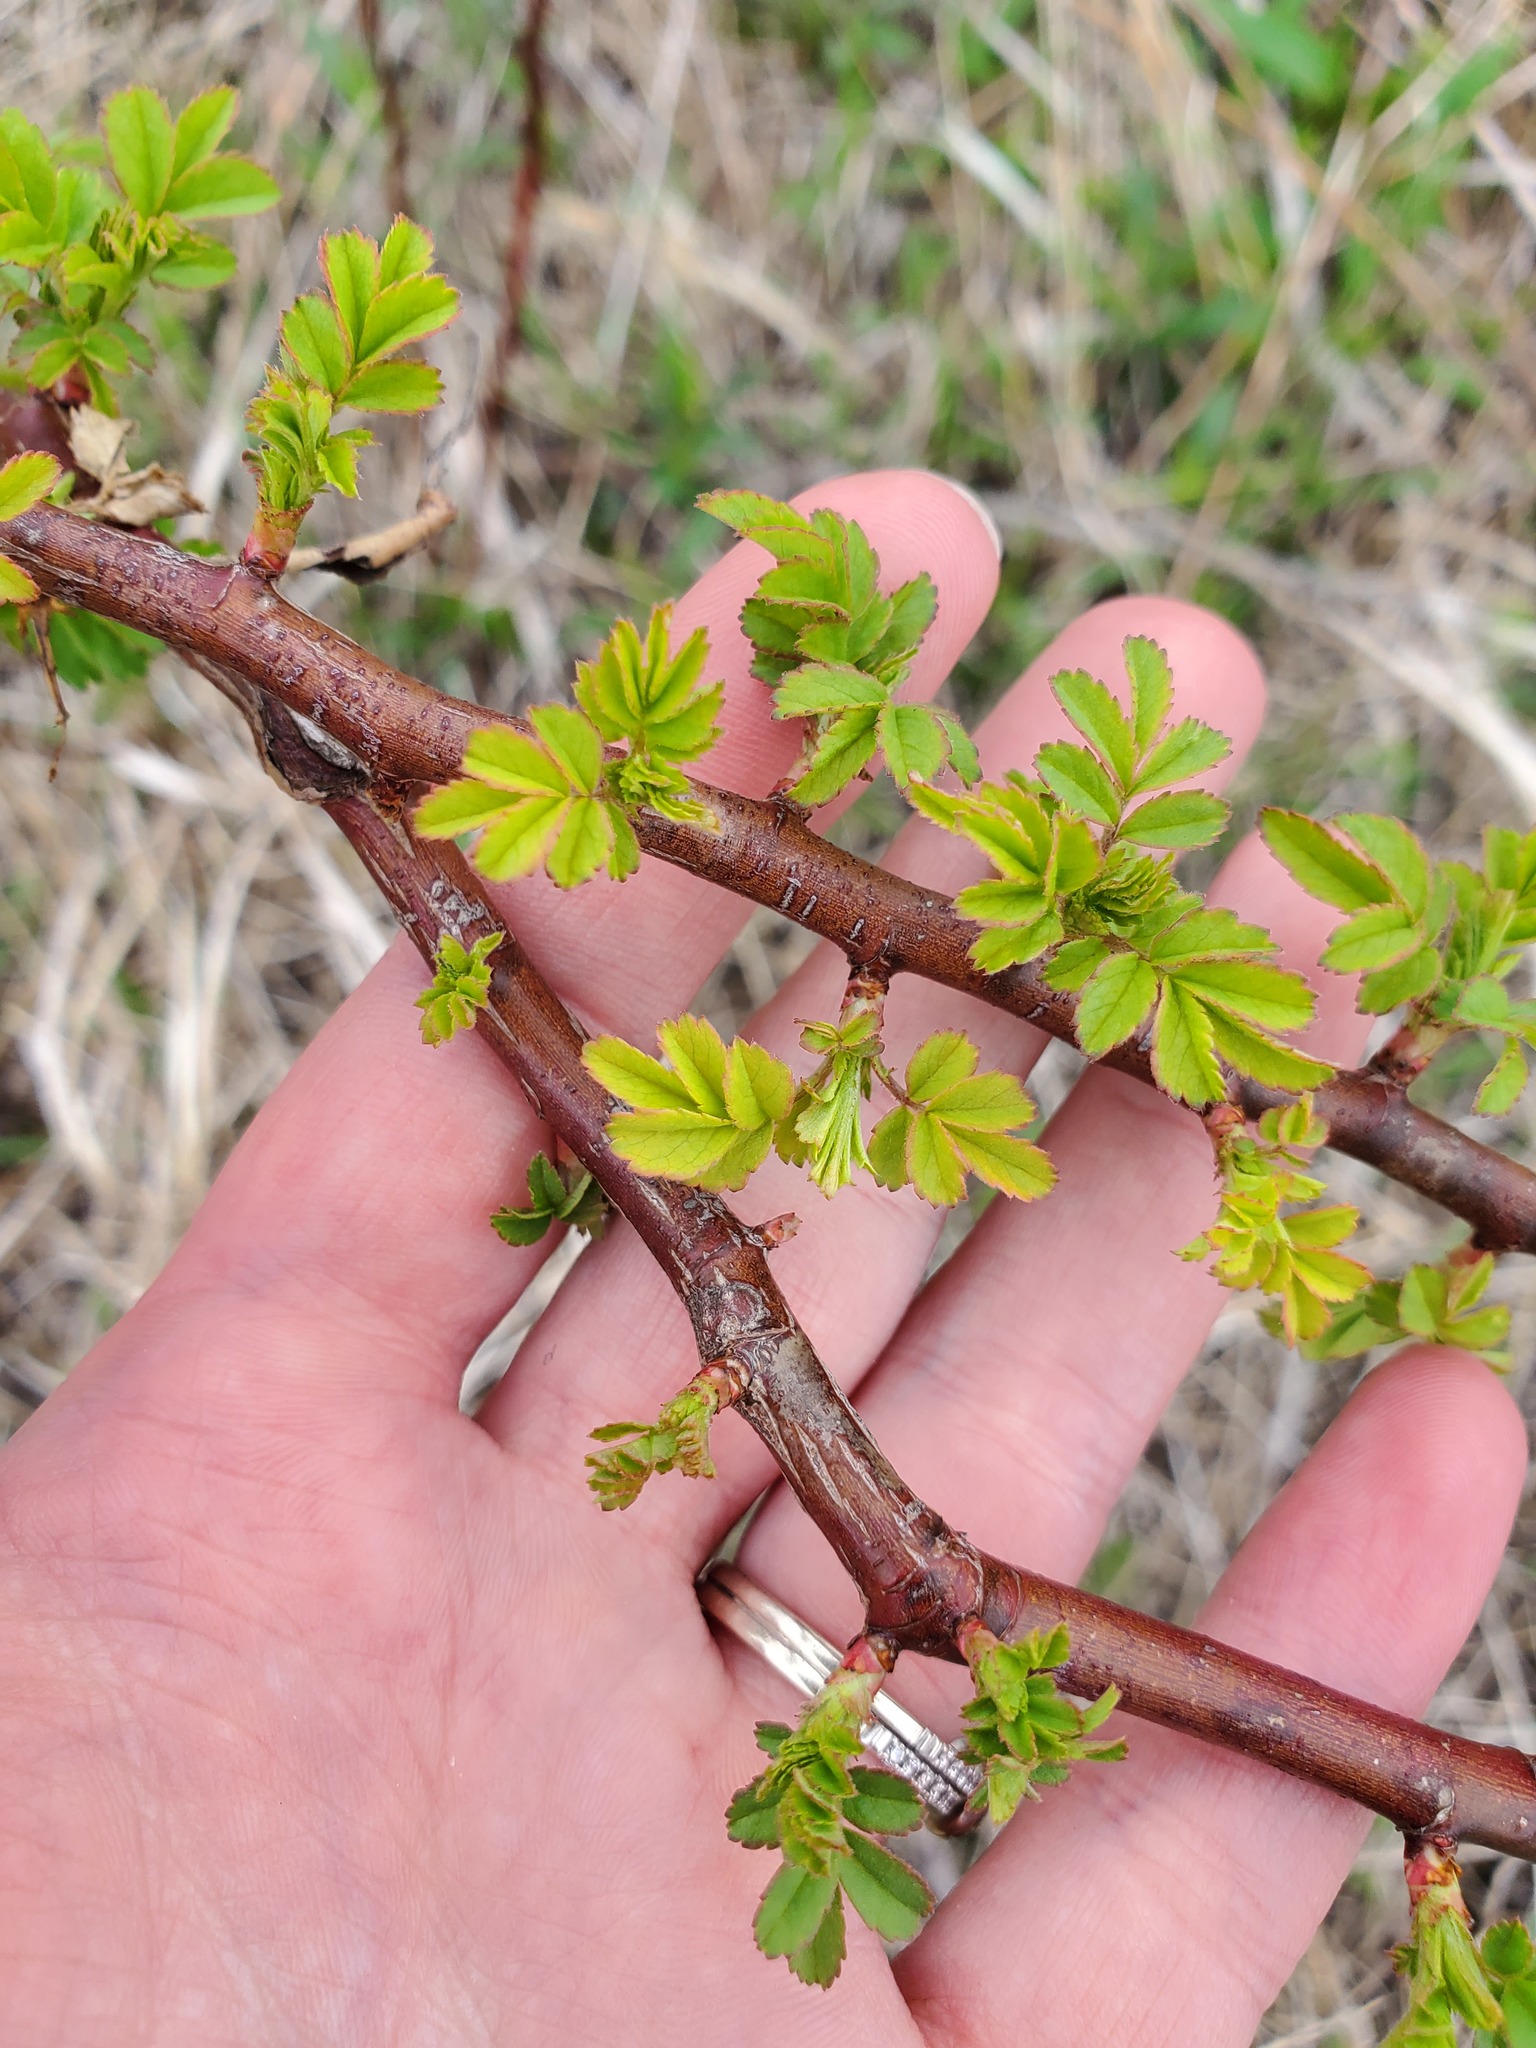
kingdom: Plantae
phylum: Tracheophyta
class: Magnoliopsida
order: Rosales
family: Rosaceae
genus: Rosa
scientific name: Rosa multiflora
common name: Multiflora rose
